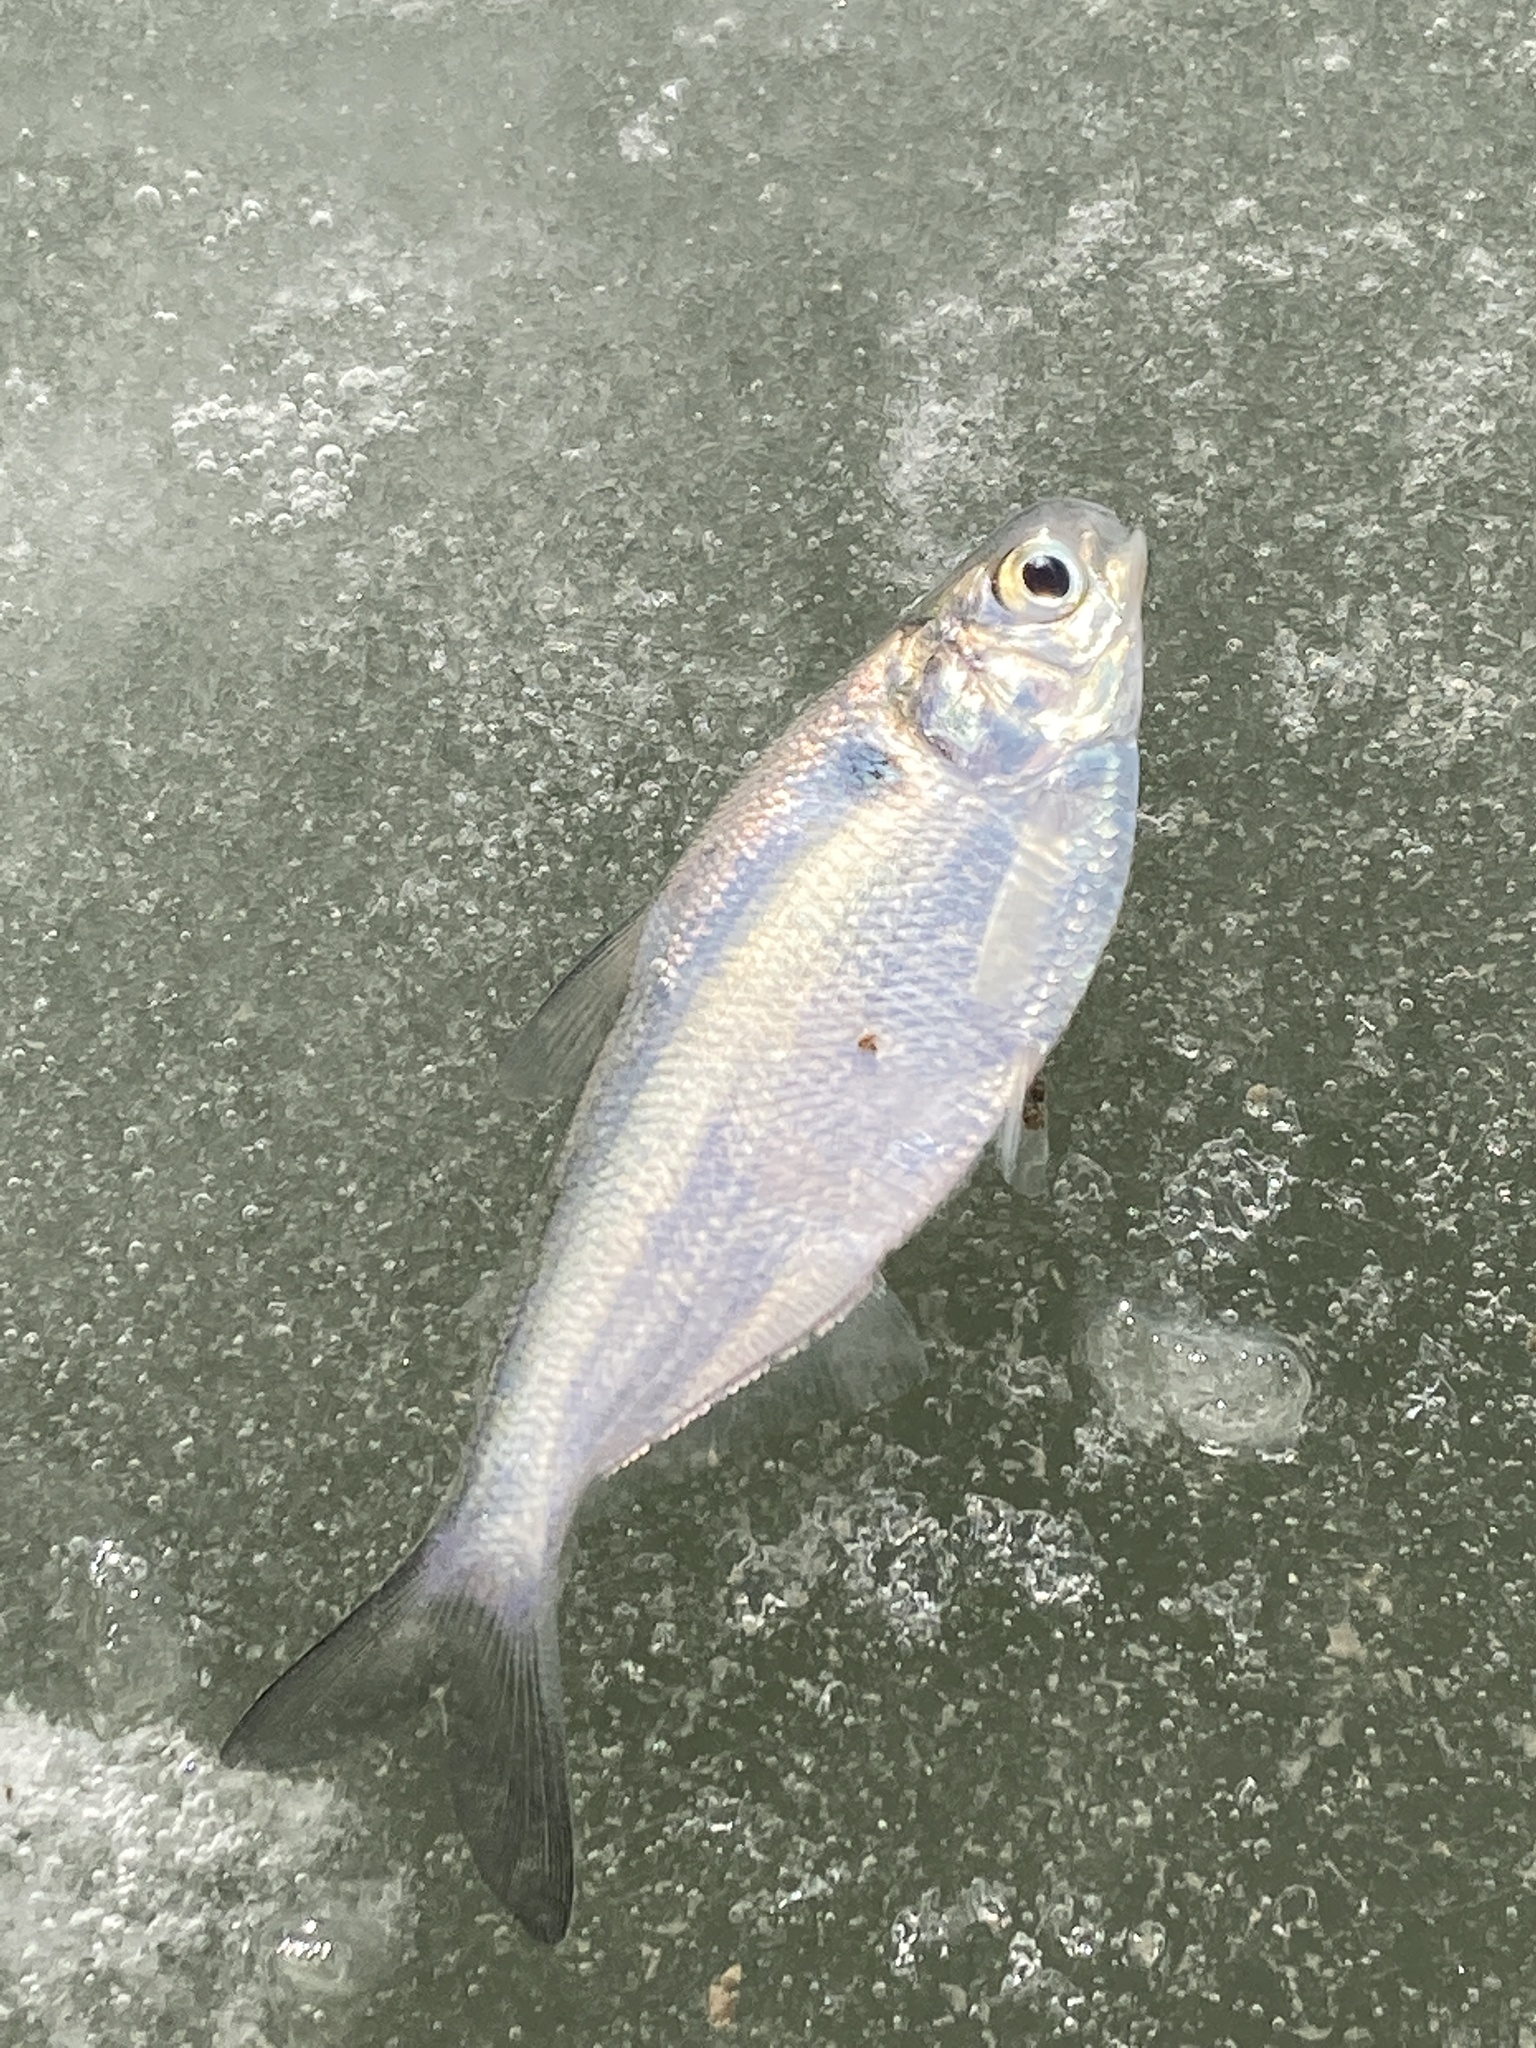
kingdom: Animalia
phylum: Chordata
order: Clupeiformes
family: Clupeidae
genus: Dorosoma
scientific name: Dorosoma cepedianum
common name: Gizzard shad
